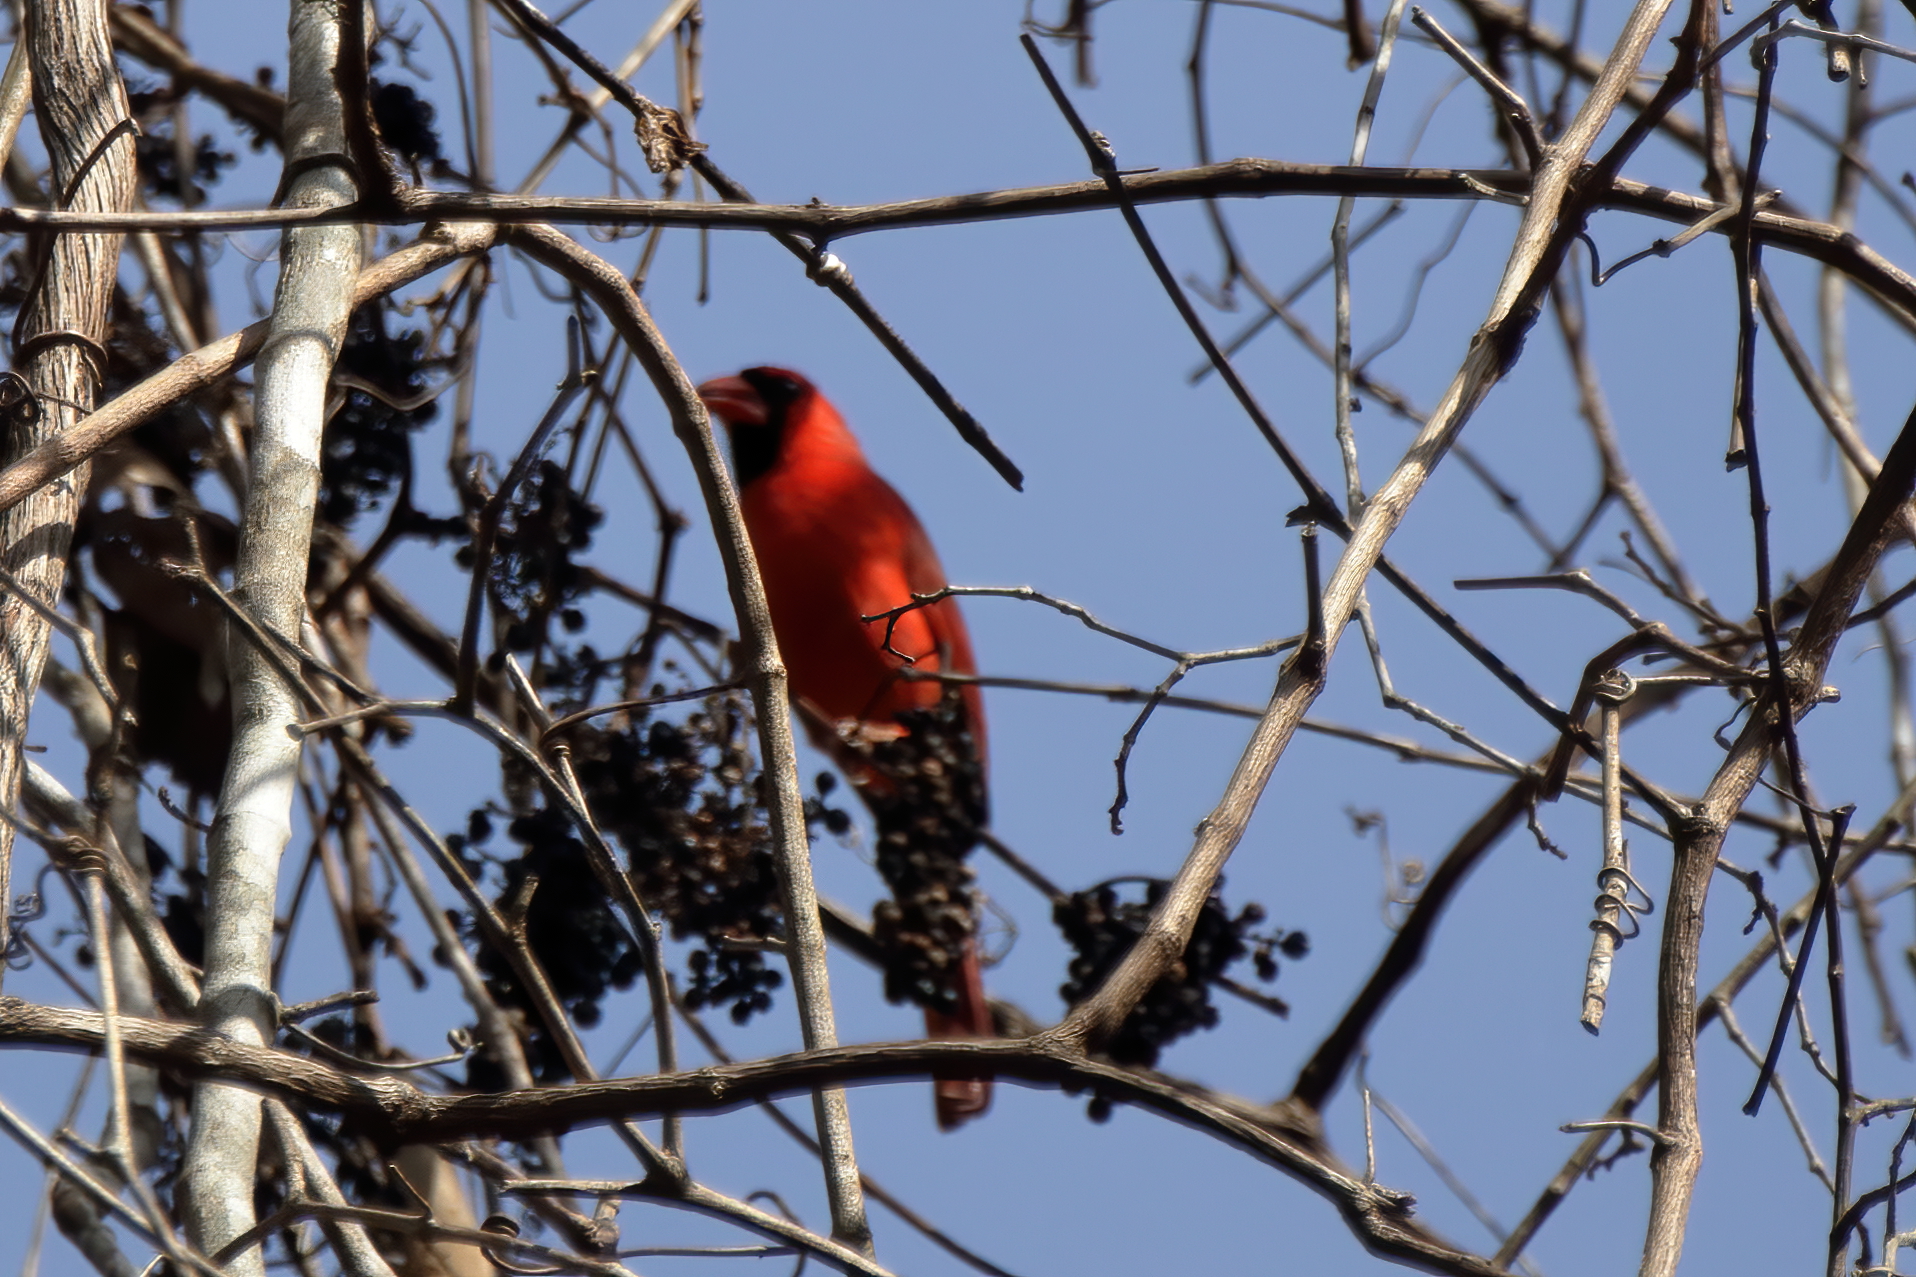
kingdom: Animalia
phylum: Chordata
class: Aves
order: Passeriformes
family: Cardinalidae
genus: Cardinalis
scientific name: Cardinalis cardinalis
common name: Northern cardinal
